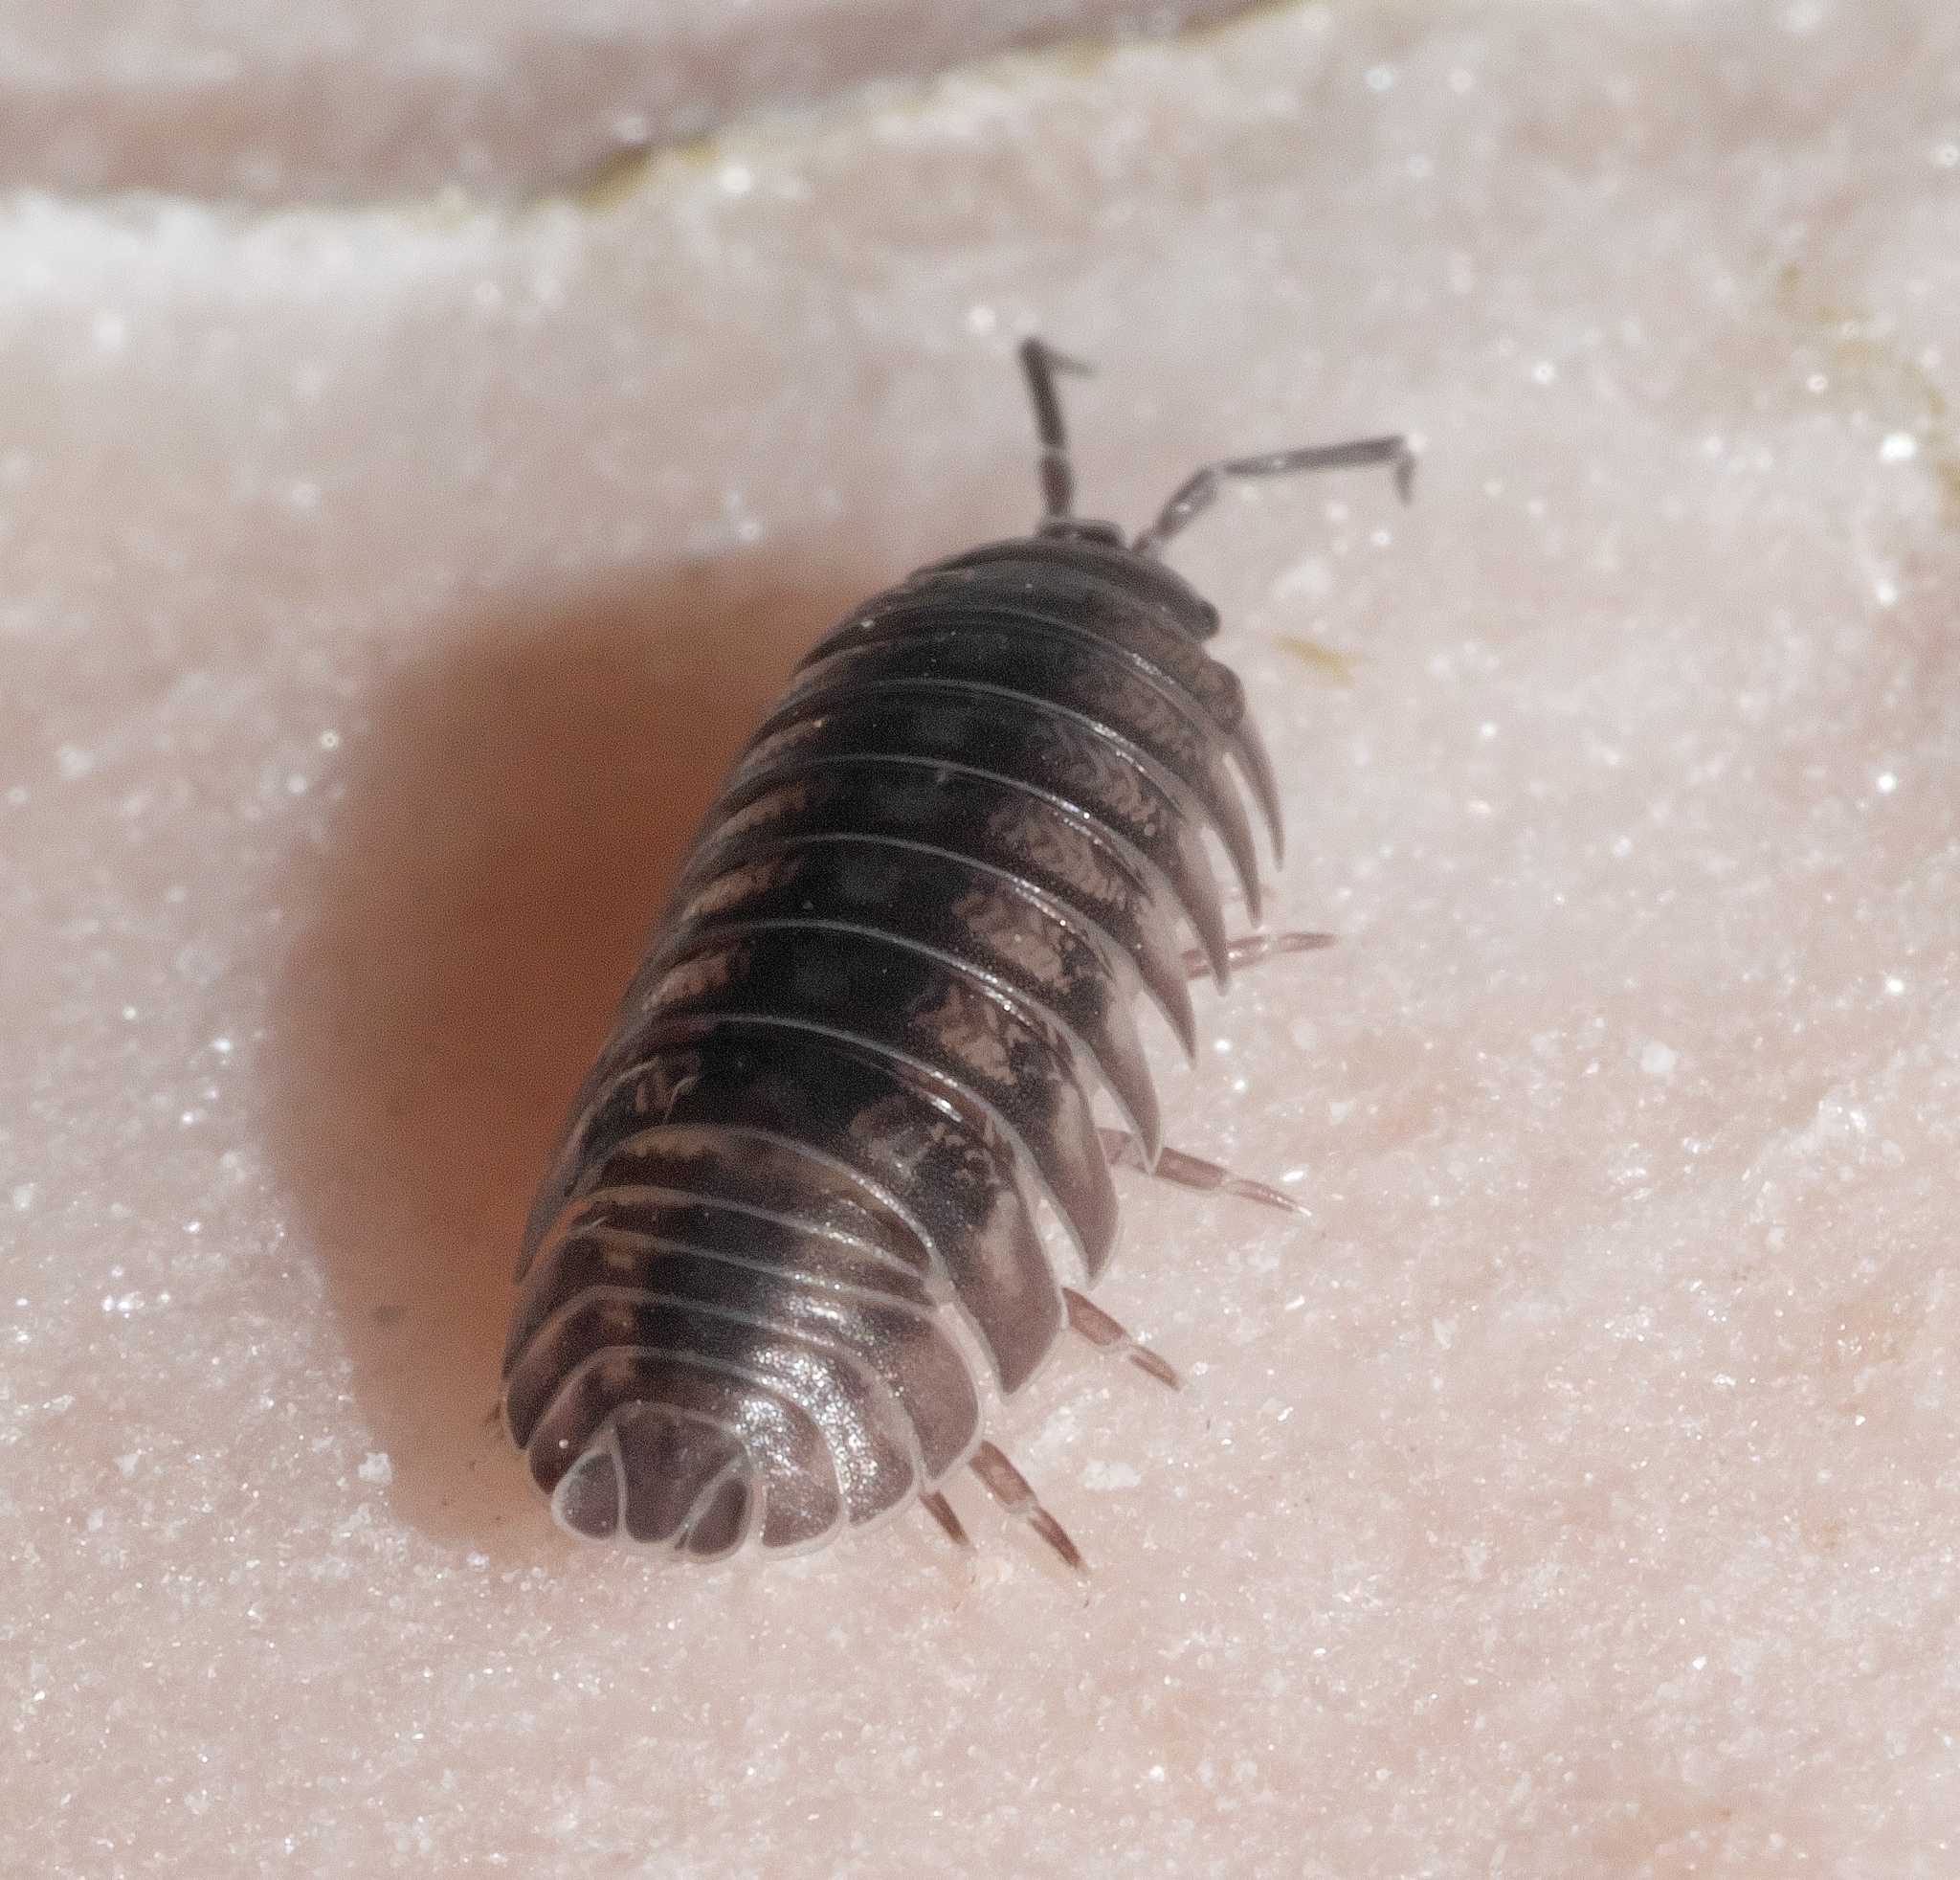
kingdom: Animalia
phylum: Arthropoda
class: Malacostraca
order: Isopoda
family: Armadillidiidae
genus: Armadillidium
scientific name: Armadillidium nasatum
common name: Isopod
